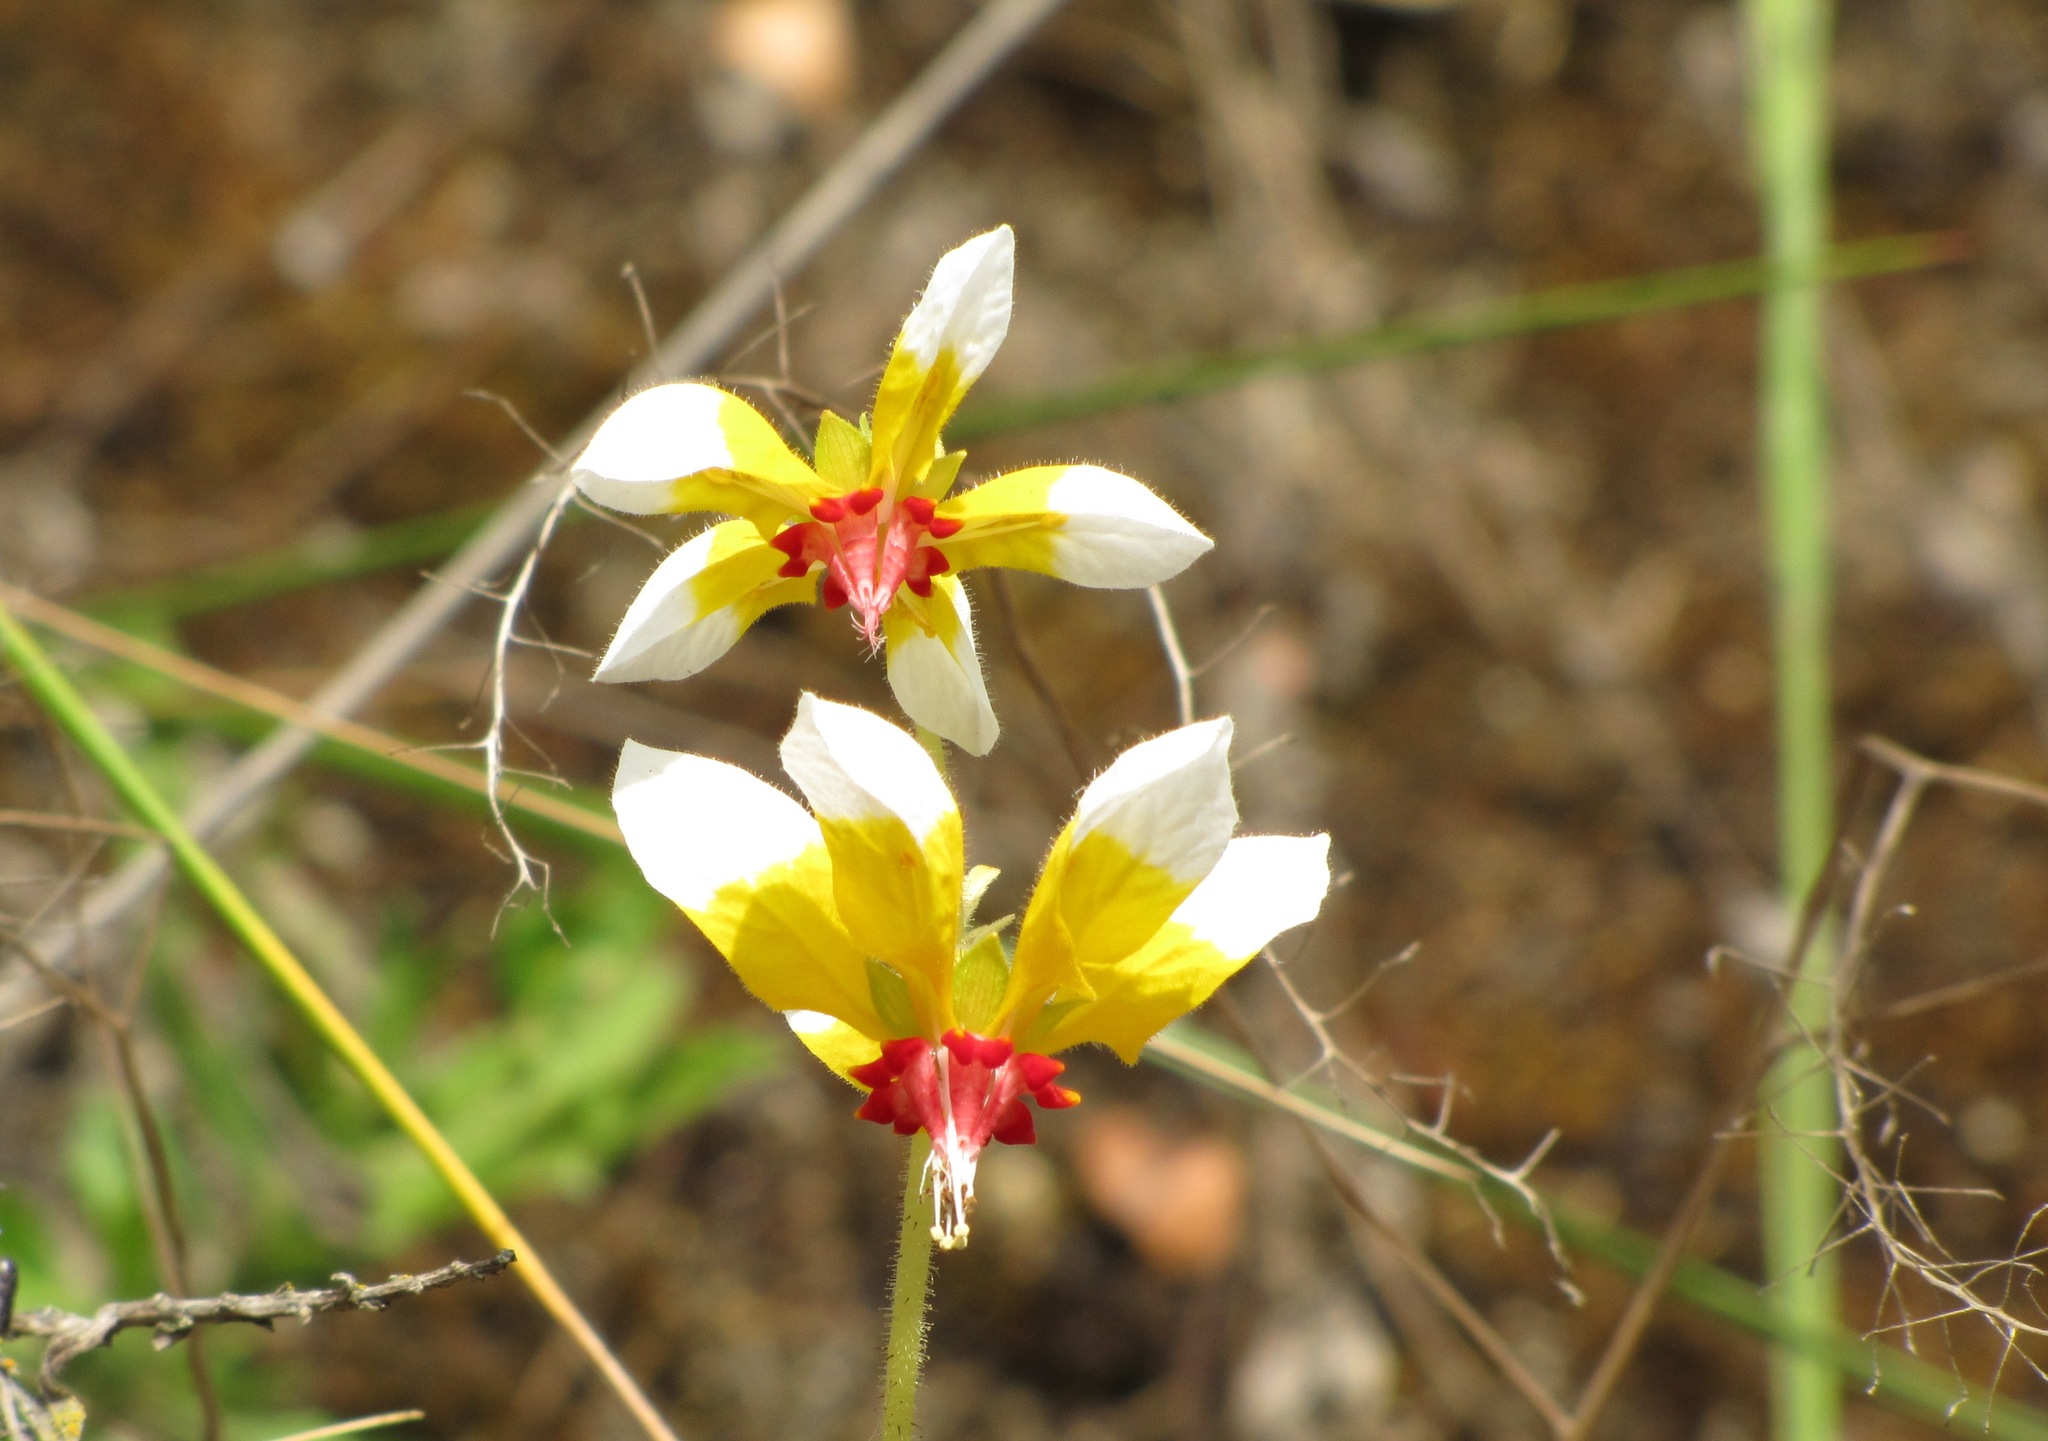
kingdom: Plantae
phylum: Tracheophyta
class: Magnoliopsida
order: Cornales
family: Loasaceae
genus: Nasa
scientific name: Nasa picta
